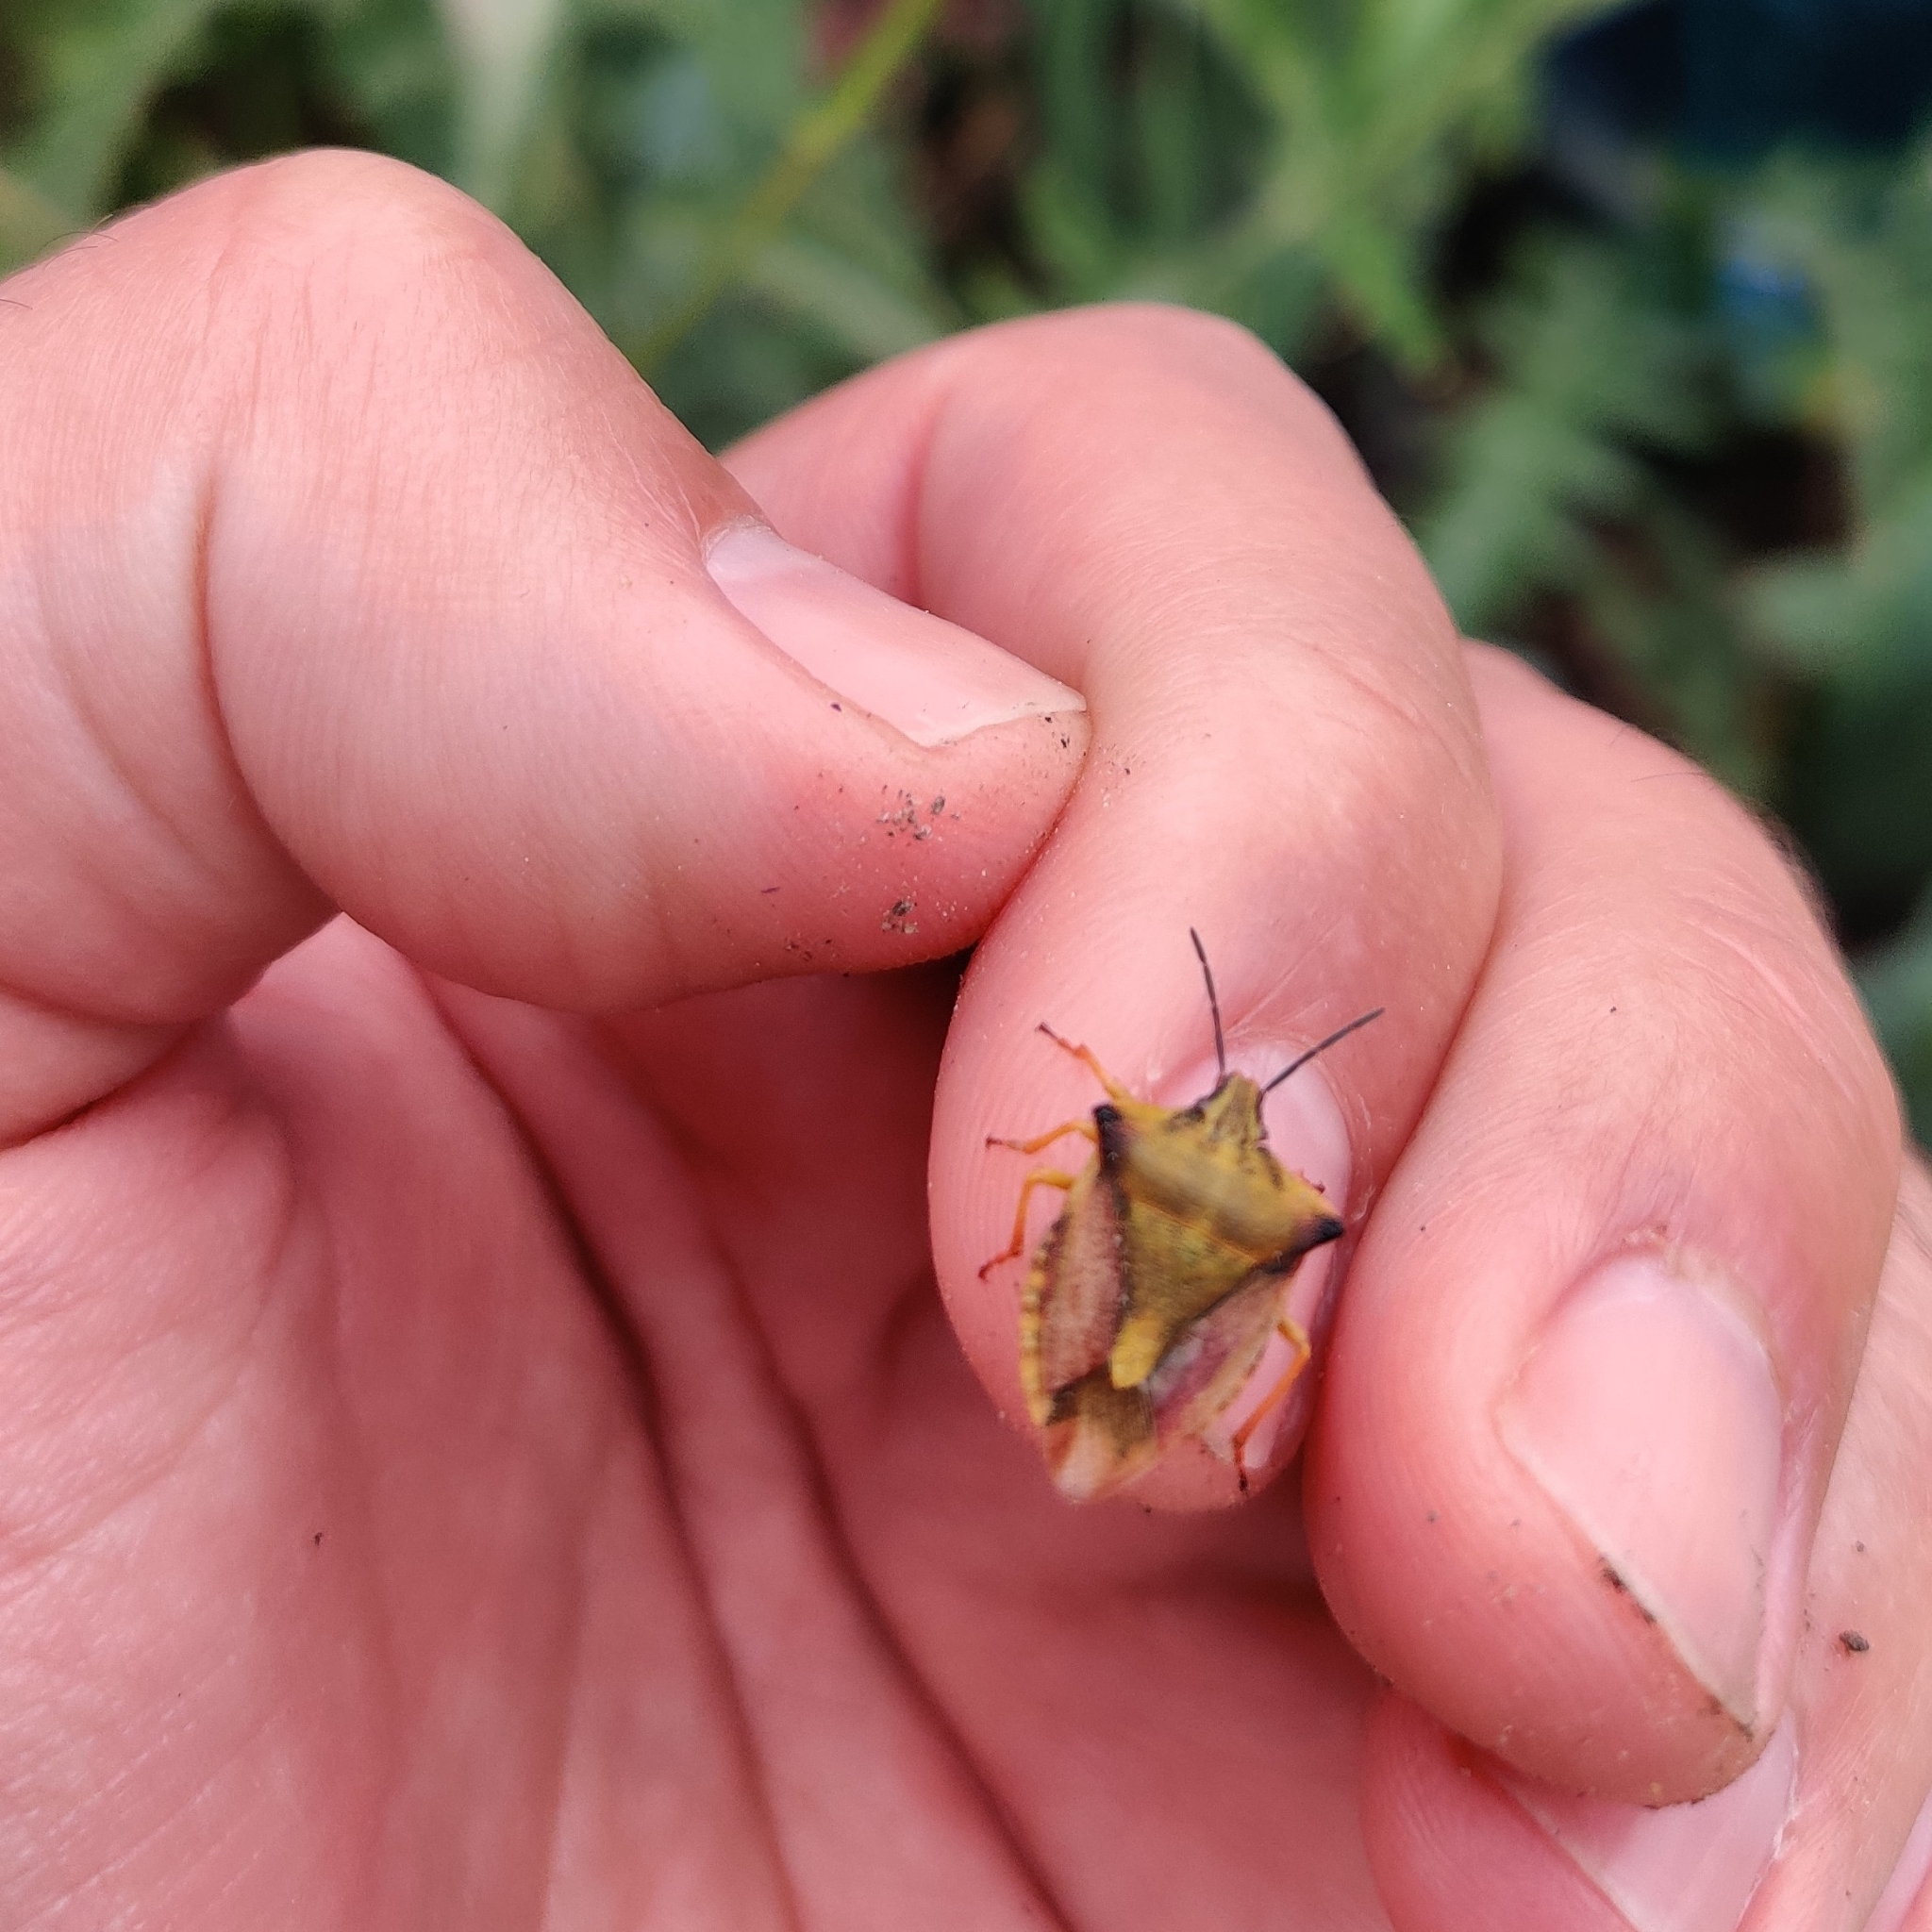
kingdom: Animalia
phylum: Arthropoda
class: Insecta
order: Hemiptera
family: Pentatomidae
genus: Carpocoris
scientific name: Carpocoris fuscispinus
